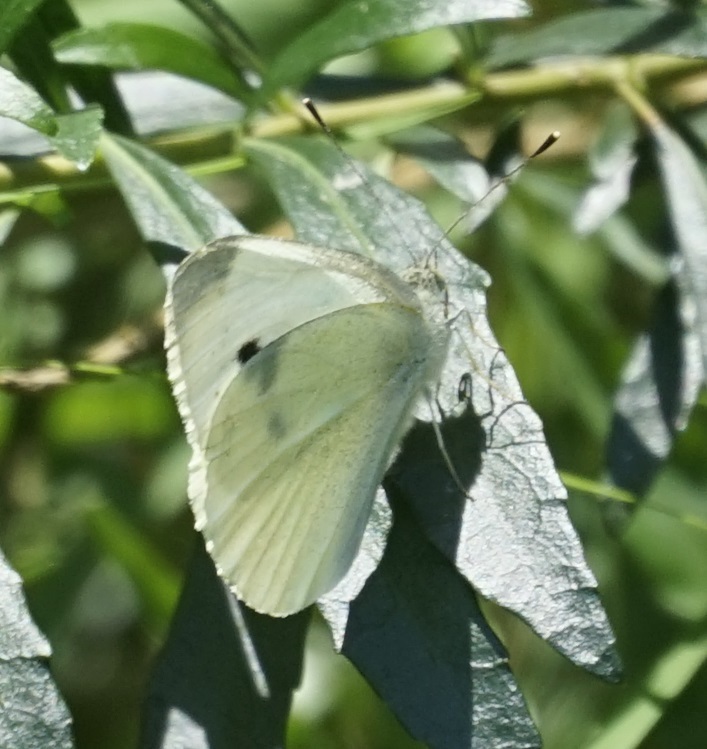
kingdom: Animalia
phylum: Arthropoda
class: Insecta
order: Lepidoptera
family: Pieridae
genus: Pieris
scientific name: Pieris rapae
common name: Small white
